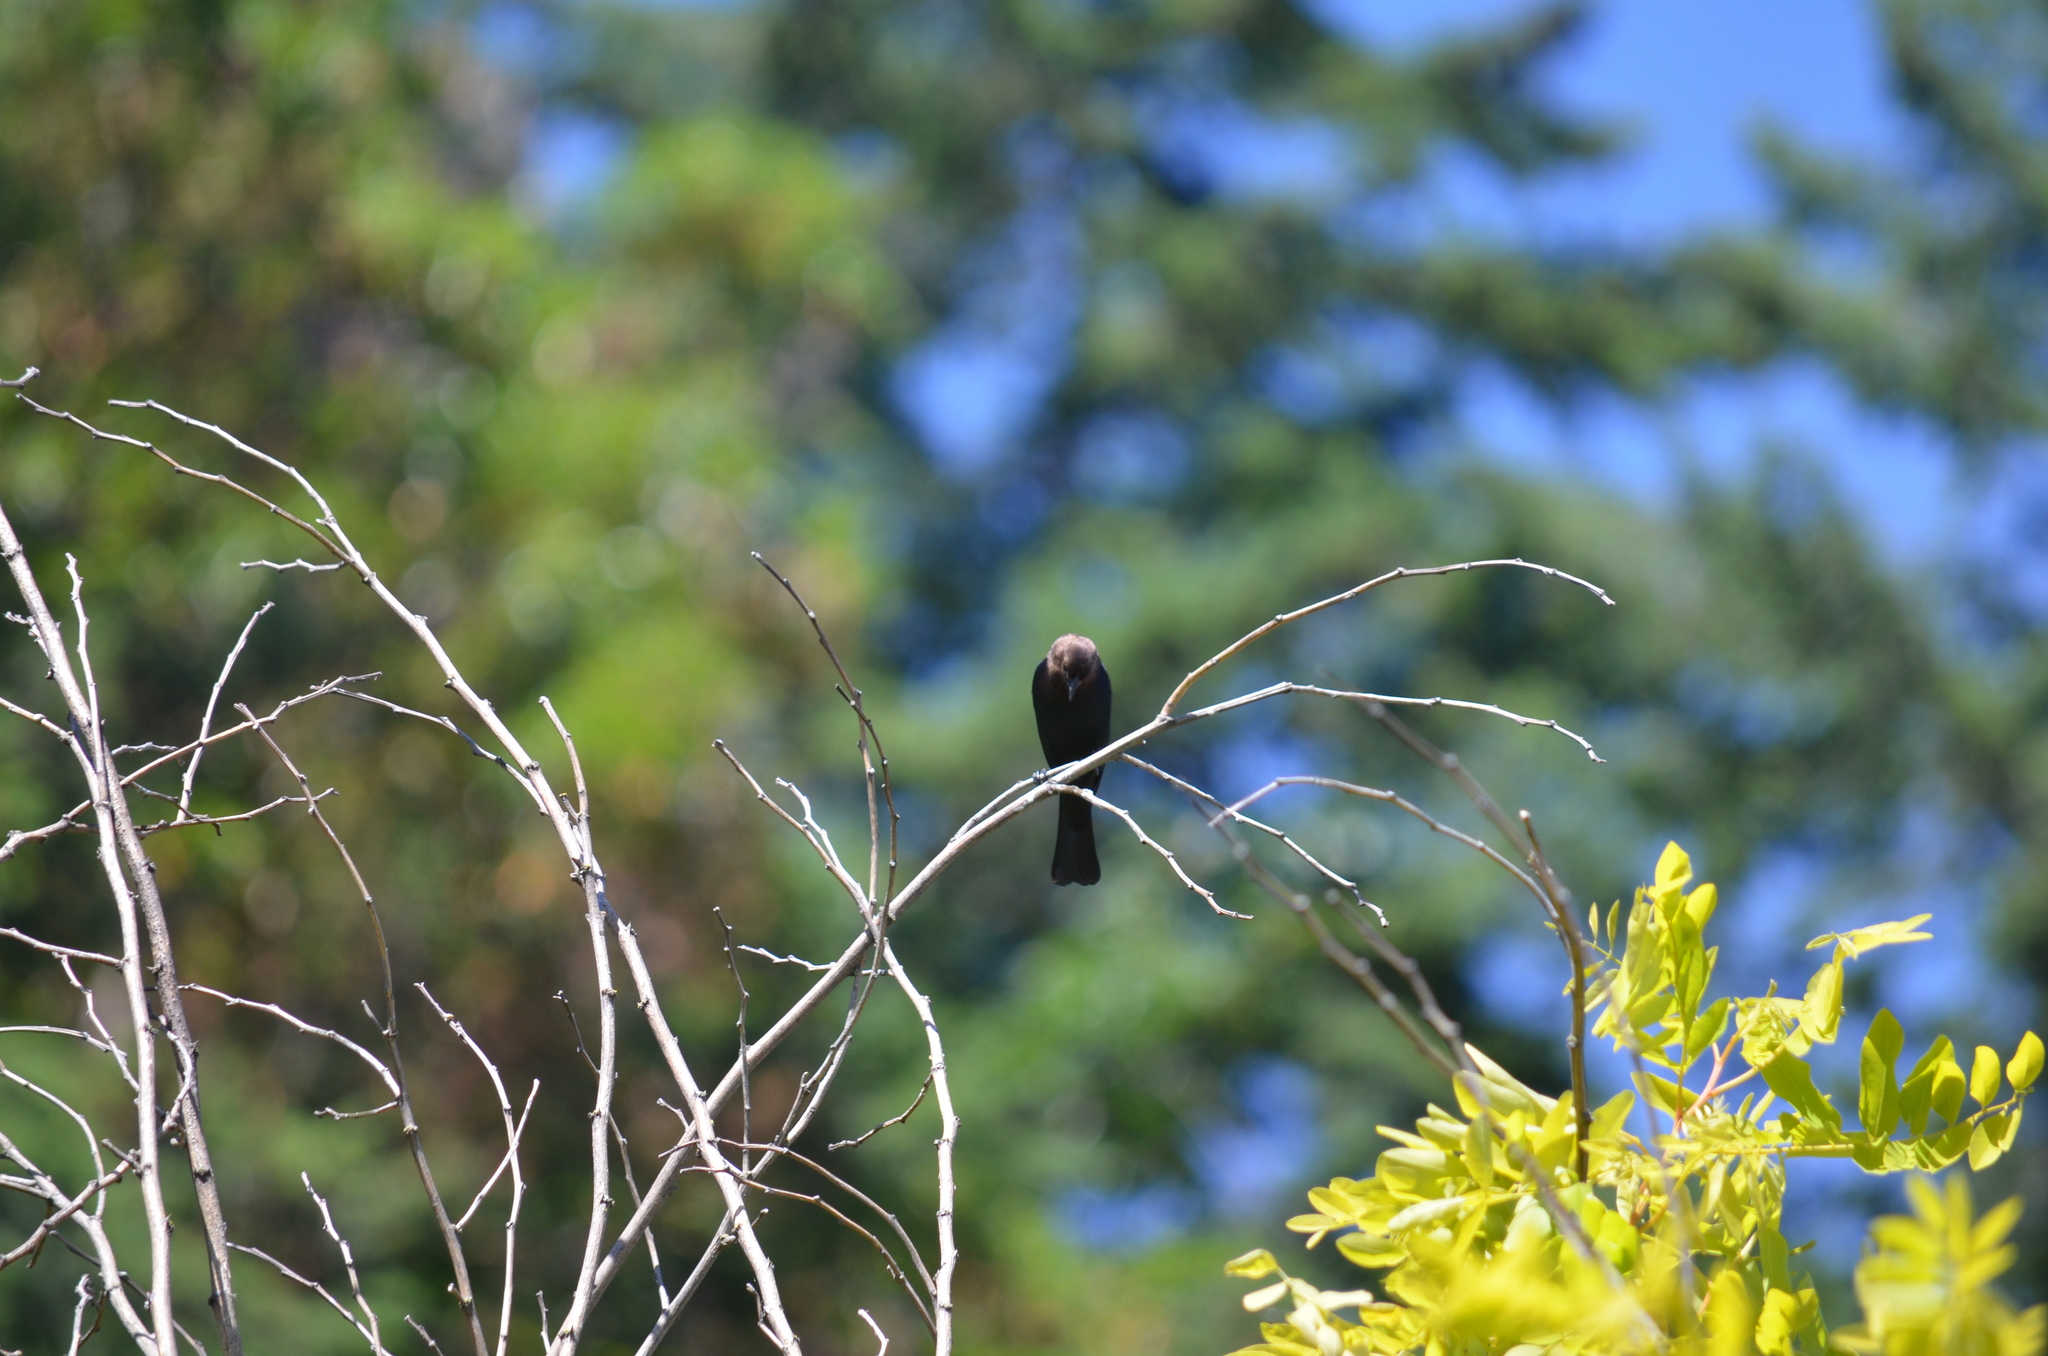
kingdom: Animalia
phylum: Chordata
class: Aves
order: Passeriformes
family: Icteridae
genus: Molothrus
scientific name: Molothrus ater
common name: Brown-headed cowbird
